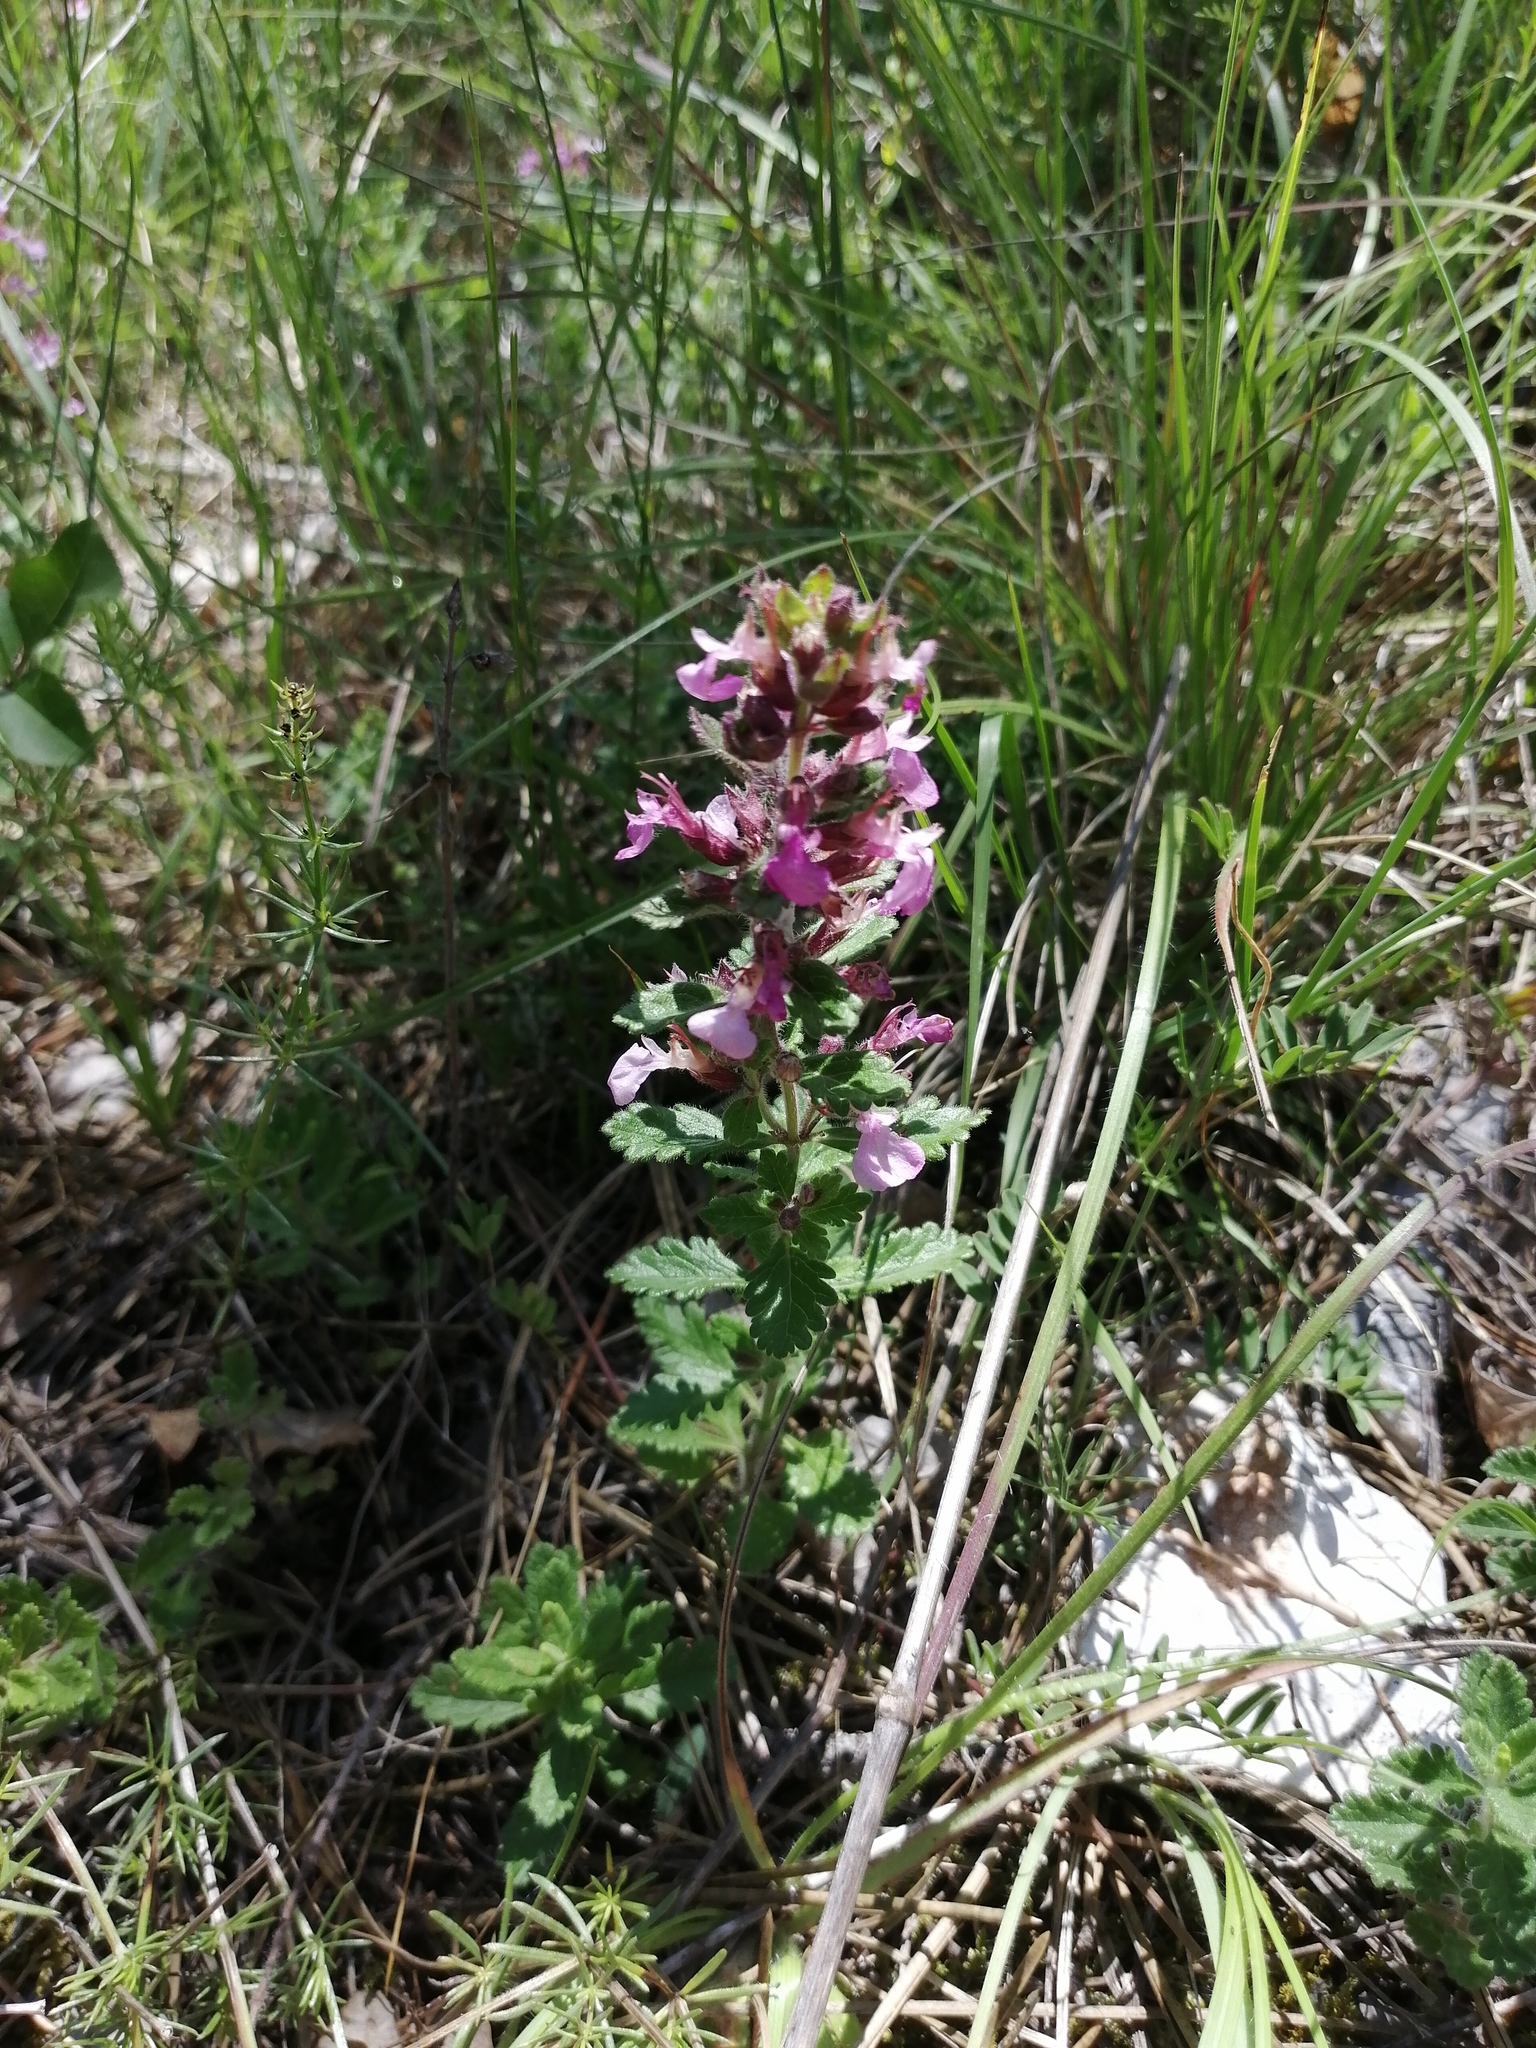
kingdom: Plantae
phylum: Tracheophyta
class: Magnoliopsida
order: Lamiales
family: Lamiaceae
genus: Teucrium
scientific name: Teucrium chamaedrys
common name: Wall germander
